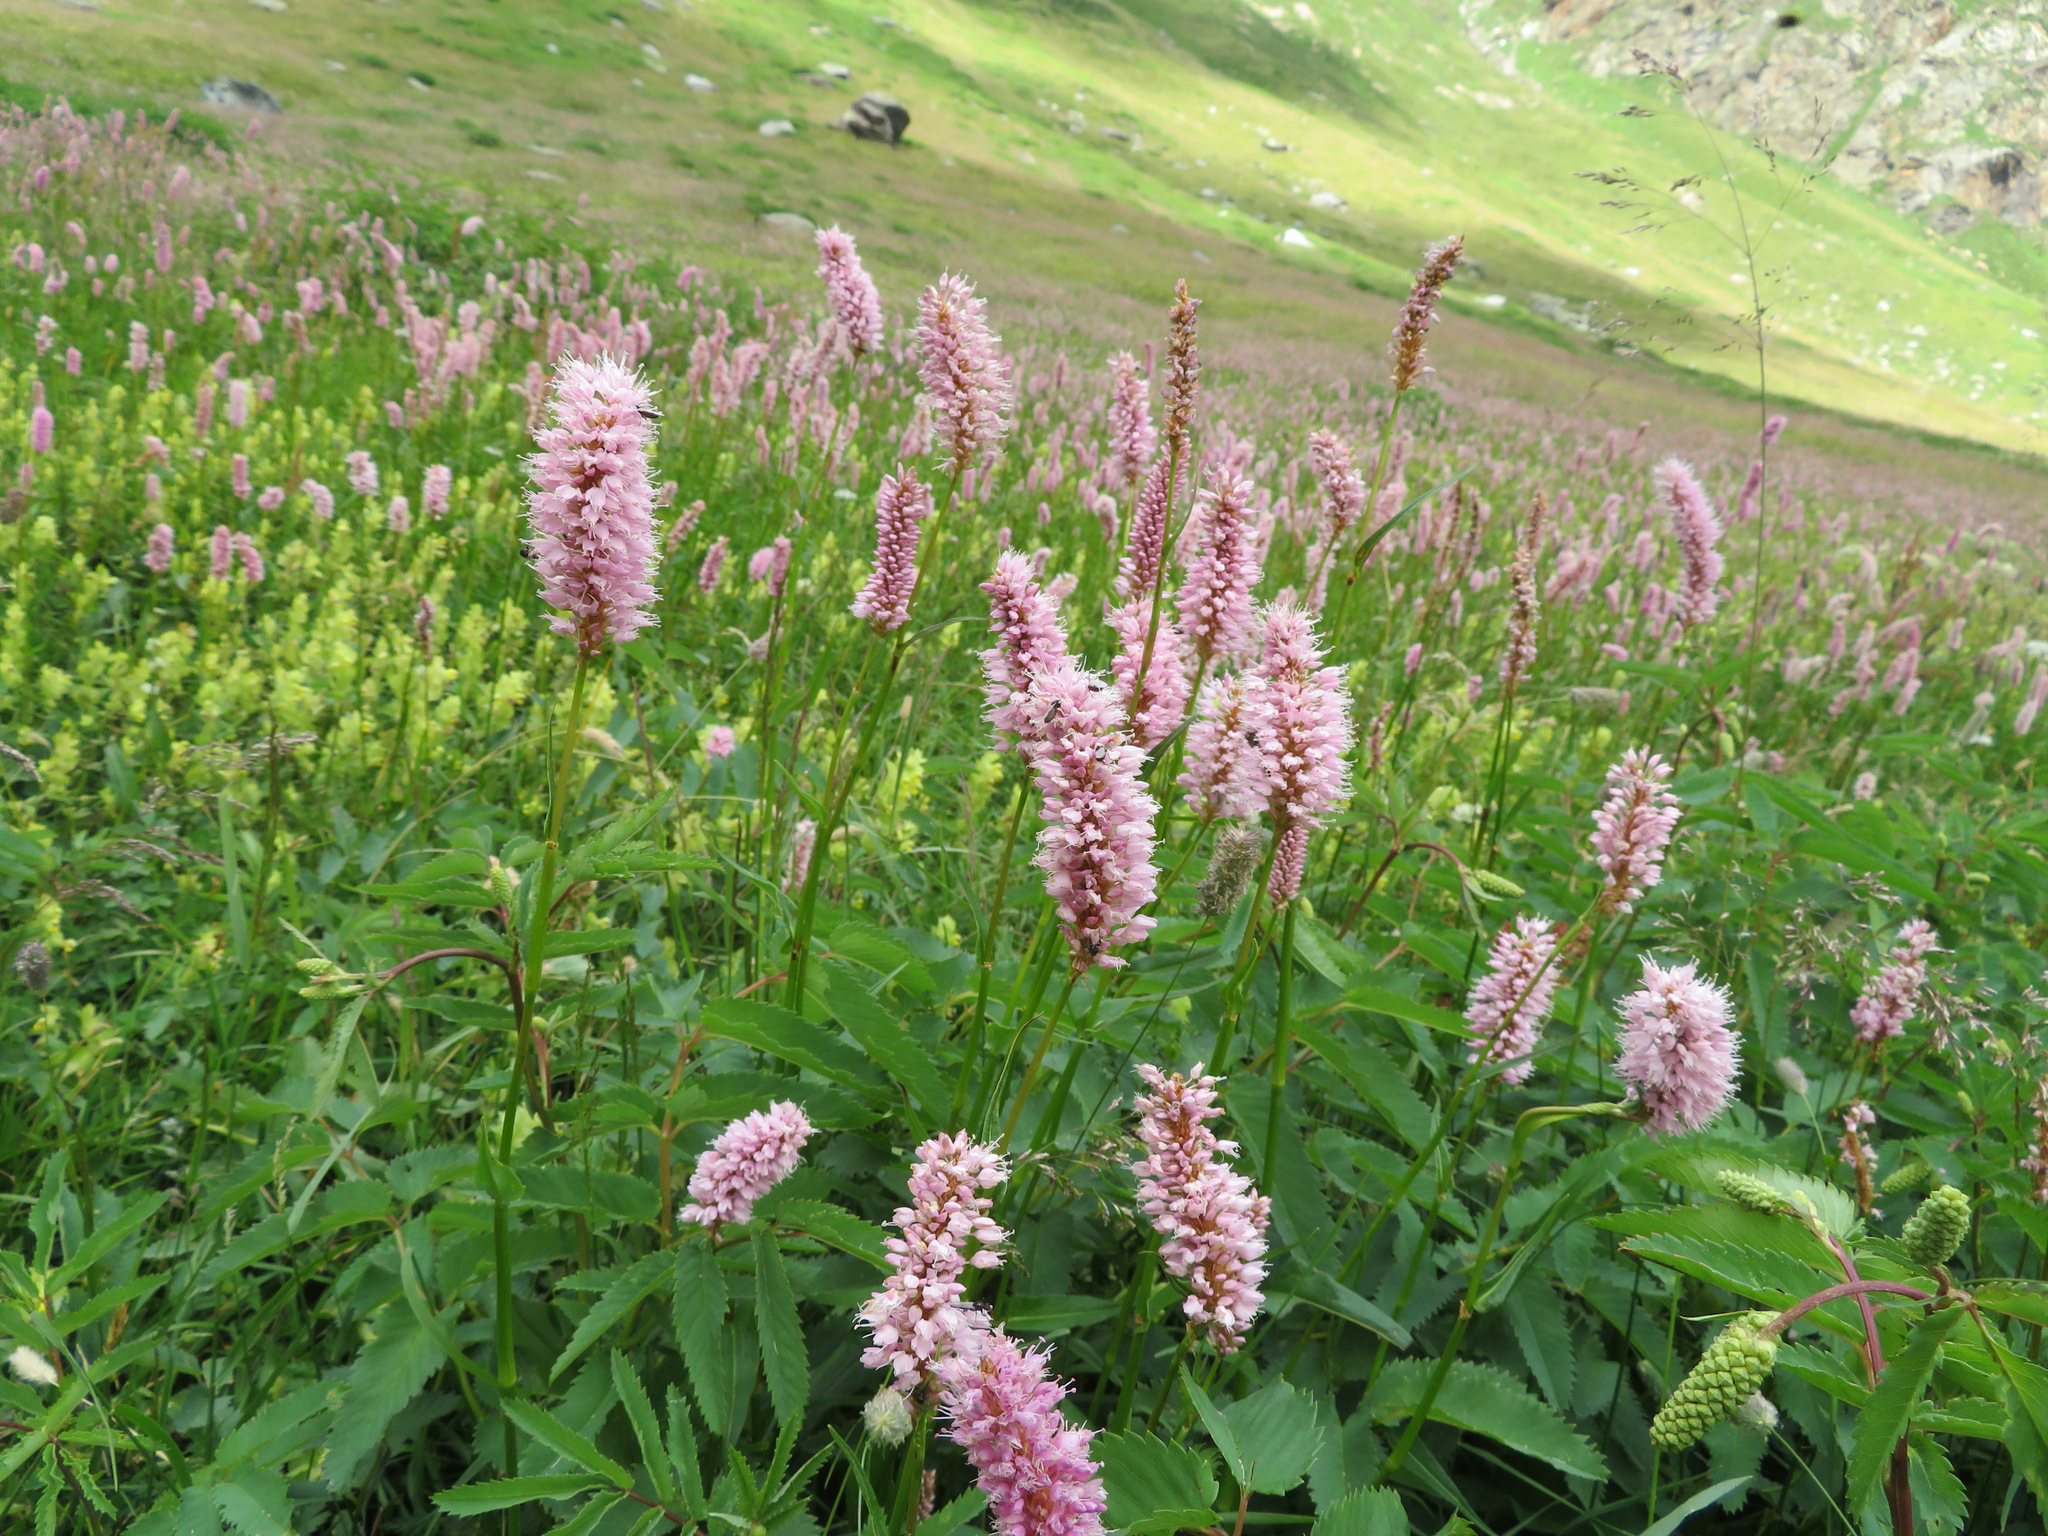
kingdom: Plantae
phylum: Tracheophyta
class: Magnoliopsida
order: Caryophyllales
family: Polygonaceae
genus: Bistorta
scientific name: Bistorta officinalis
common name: Common bistort
